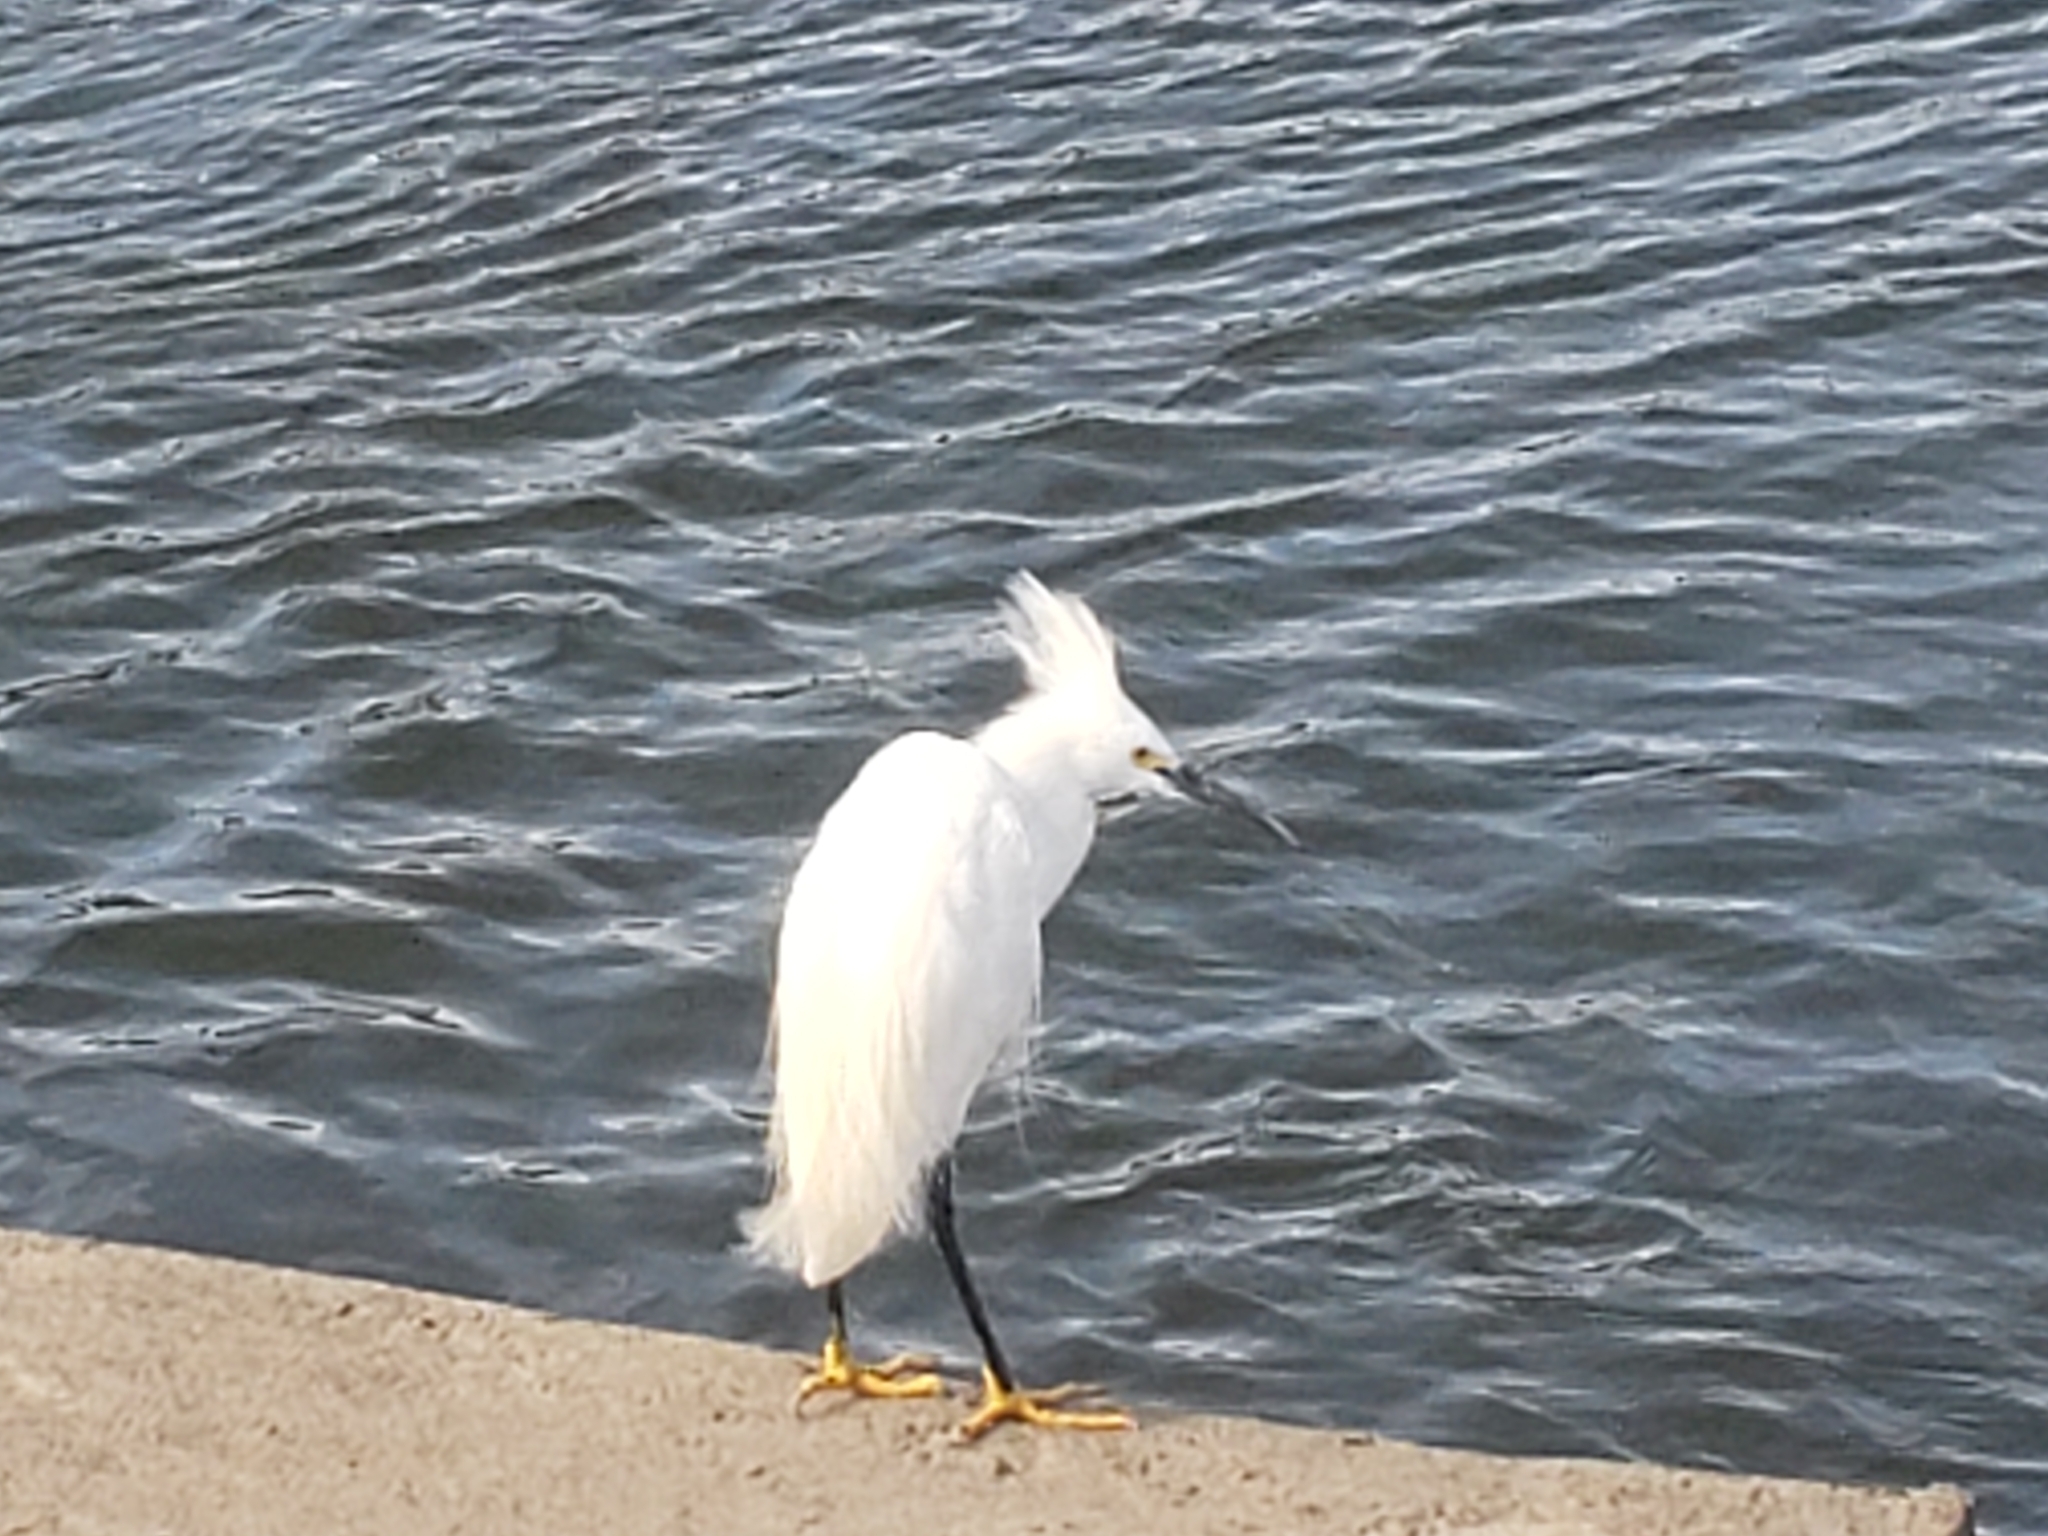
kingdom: Animalia
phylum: Chordata
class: Aves
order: Pelecaniformes
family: Ardeidae
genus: Egretta
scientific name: Egretta thula
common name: Snowy egret
